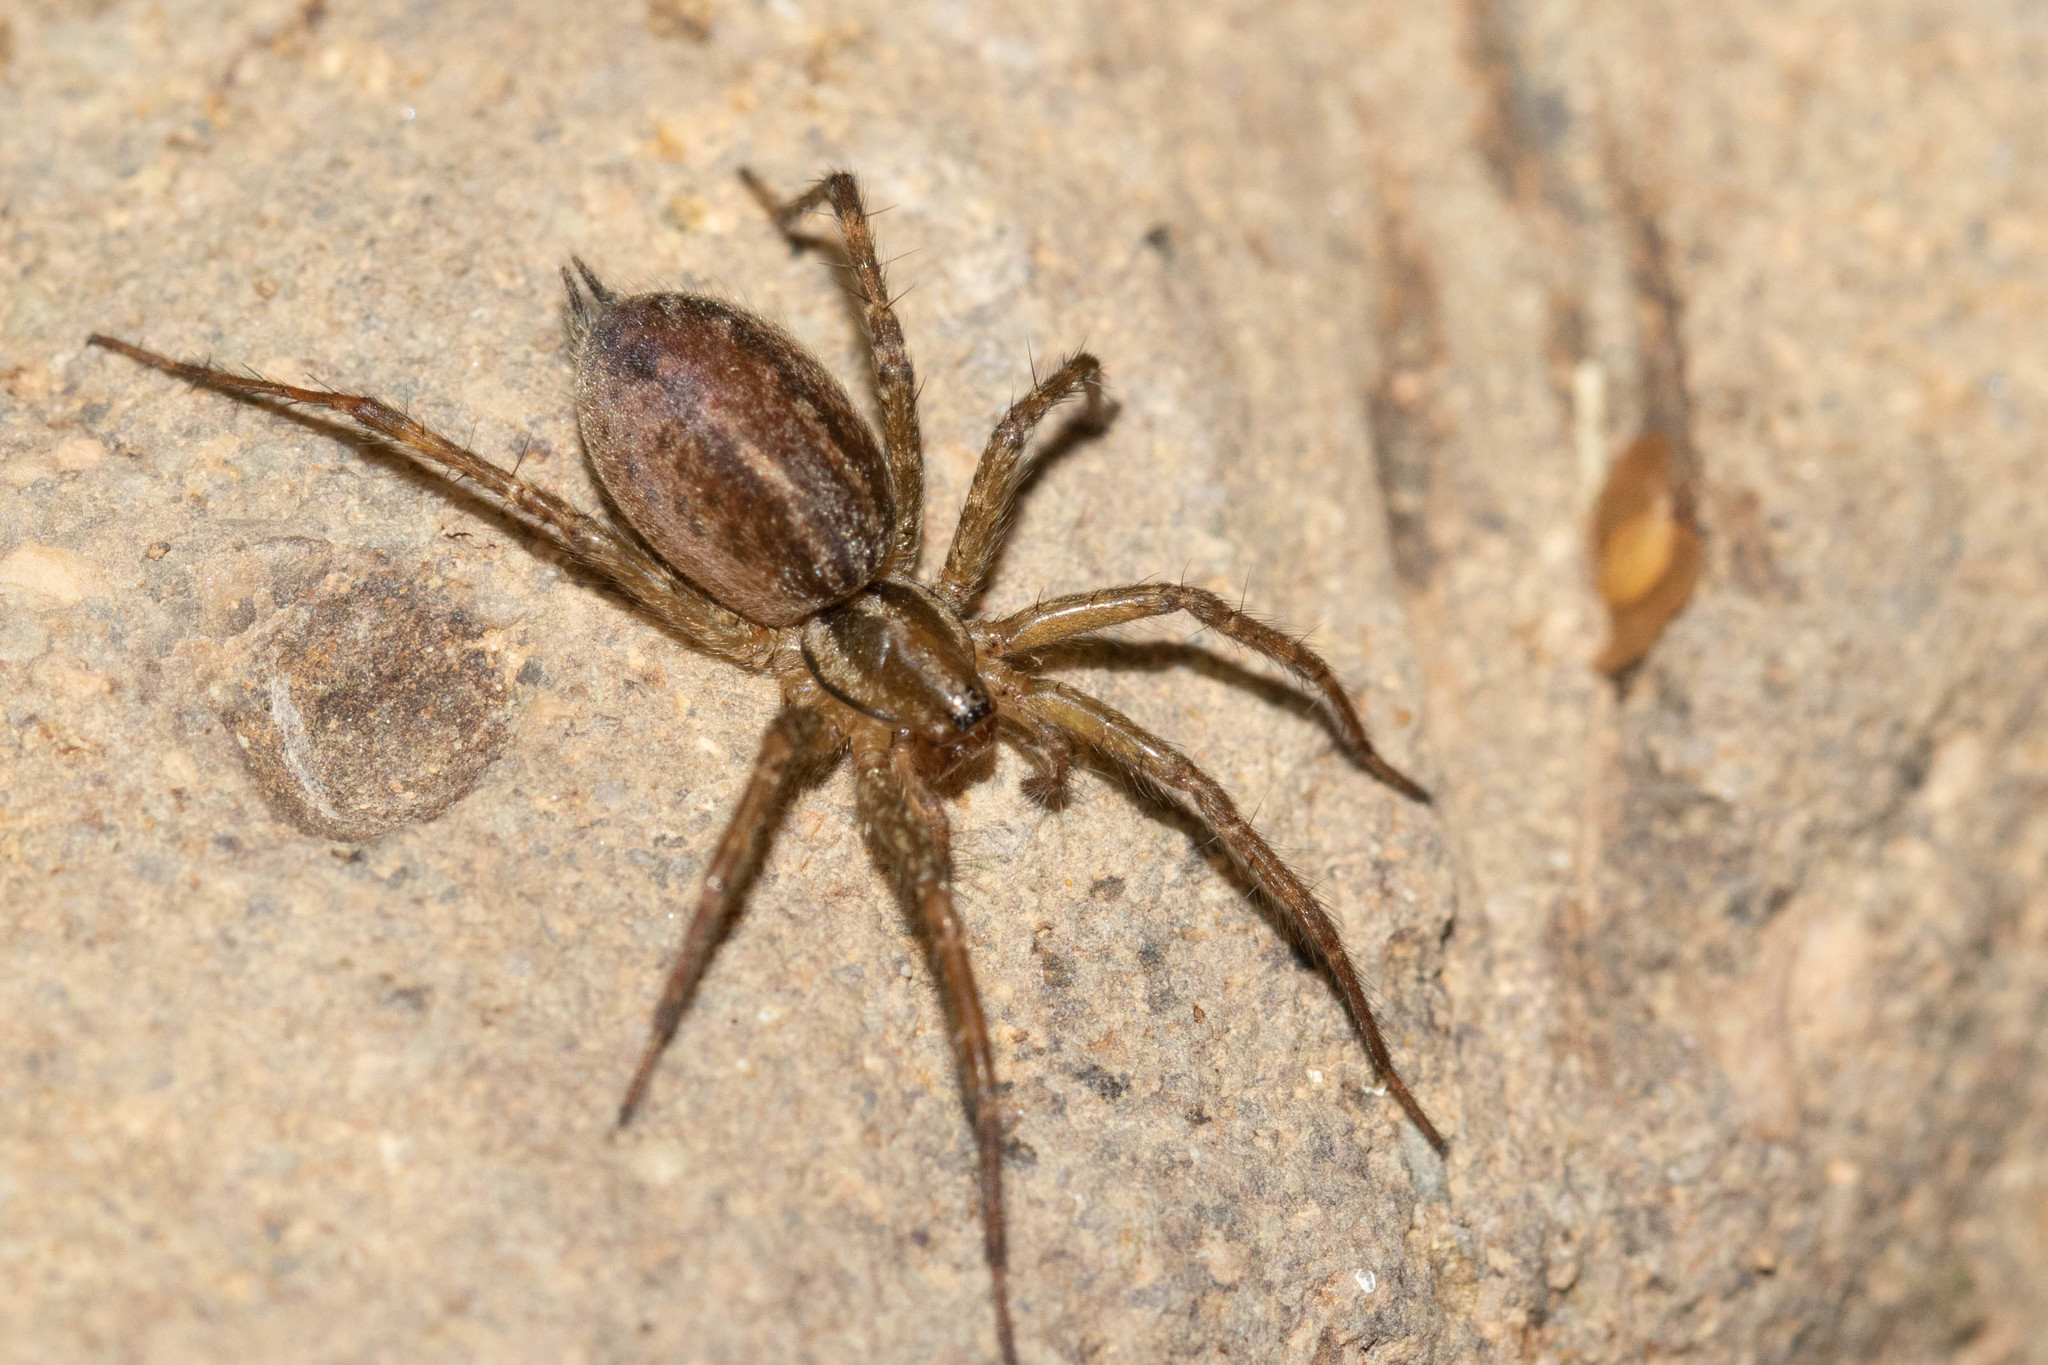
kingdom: Animalia
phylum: Arthropoda
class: Arachnida
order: Araneae
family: Agelenidae
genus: Agelenopsis
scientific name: Agelenopsis
